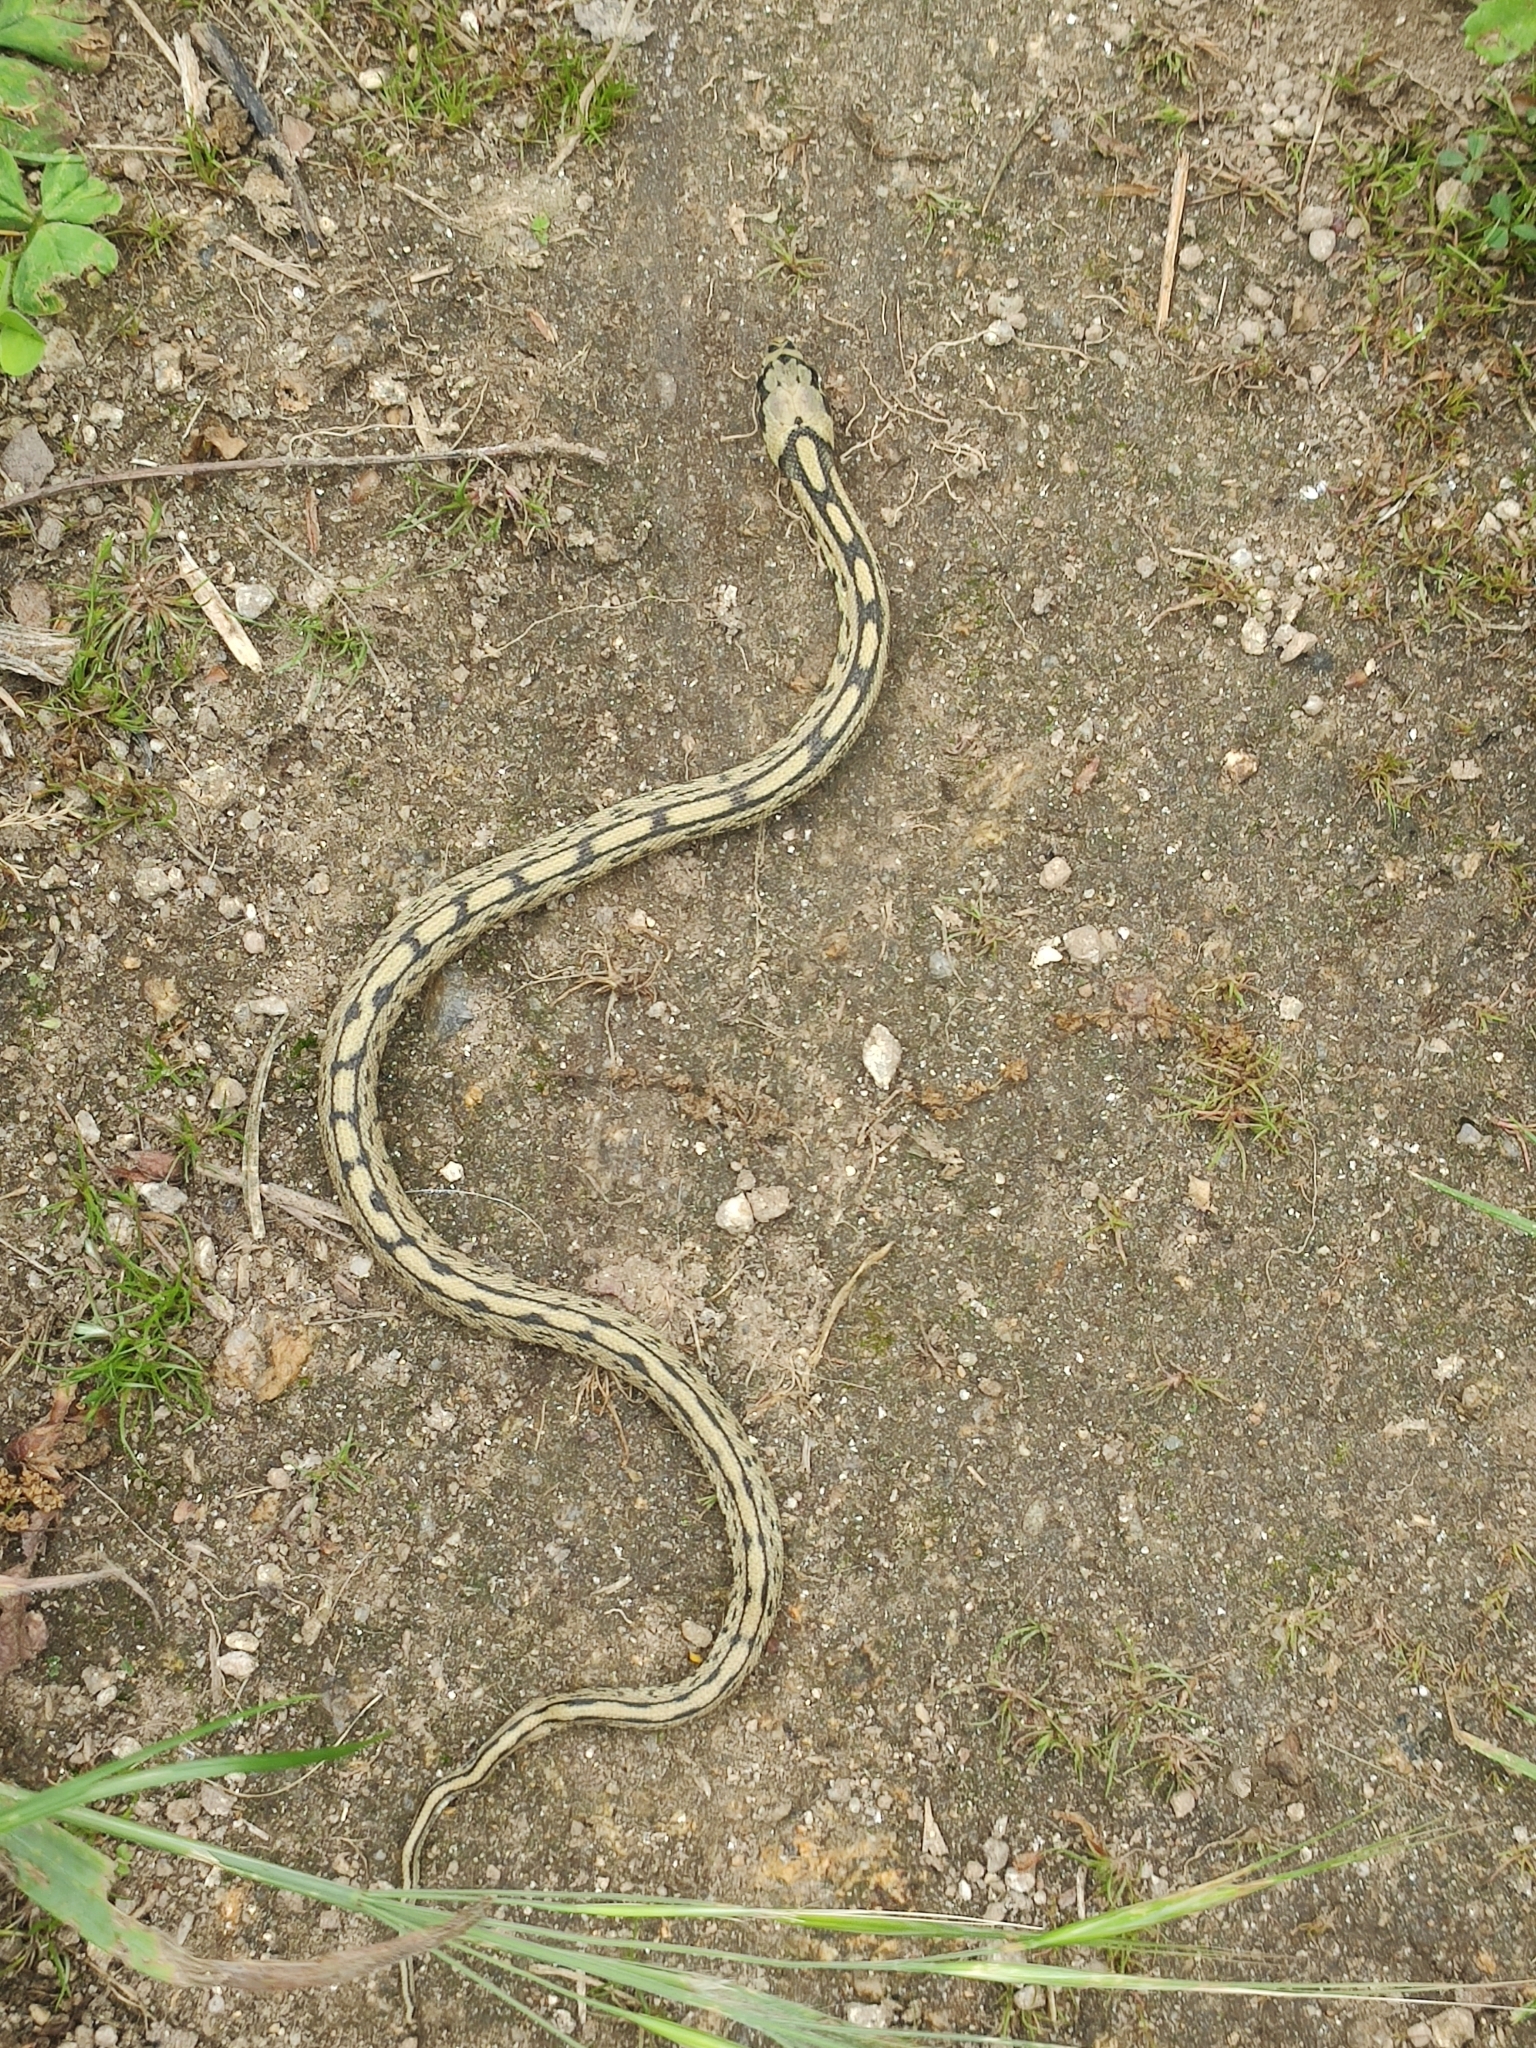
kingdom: Animalia
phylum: Chordata
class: Squamata
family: Colubridae
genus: Zamenis
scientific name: Zamenis scalaris
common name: Ladder snakes
